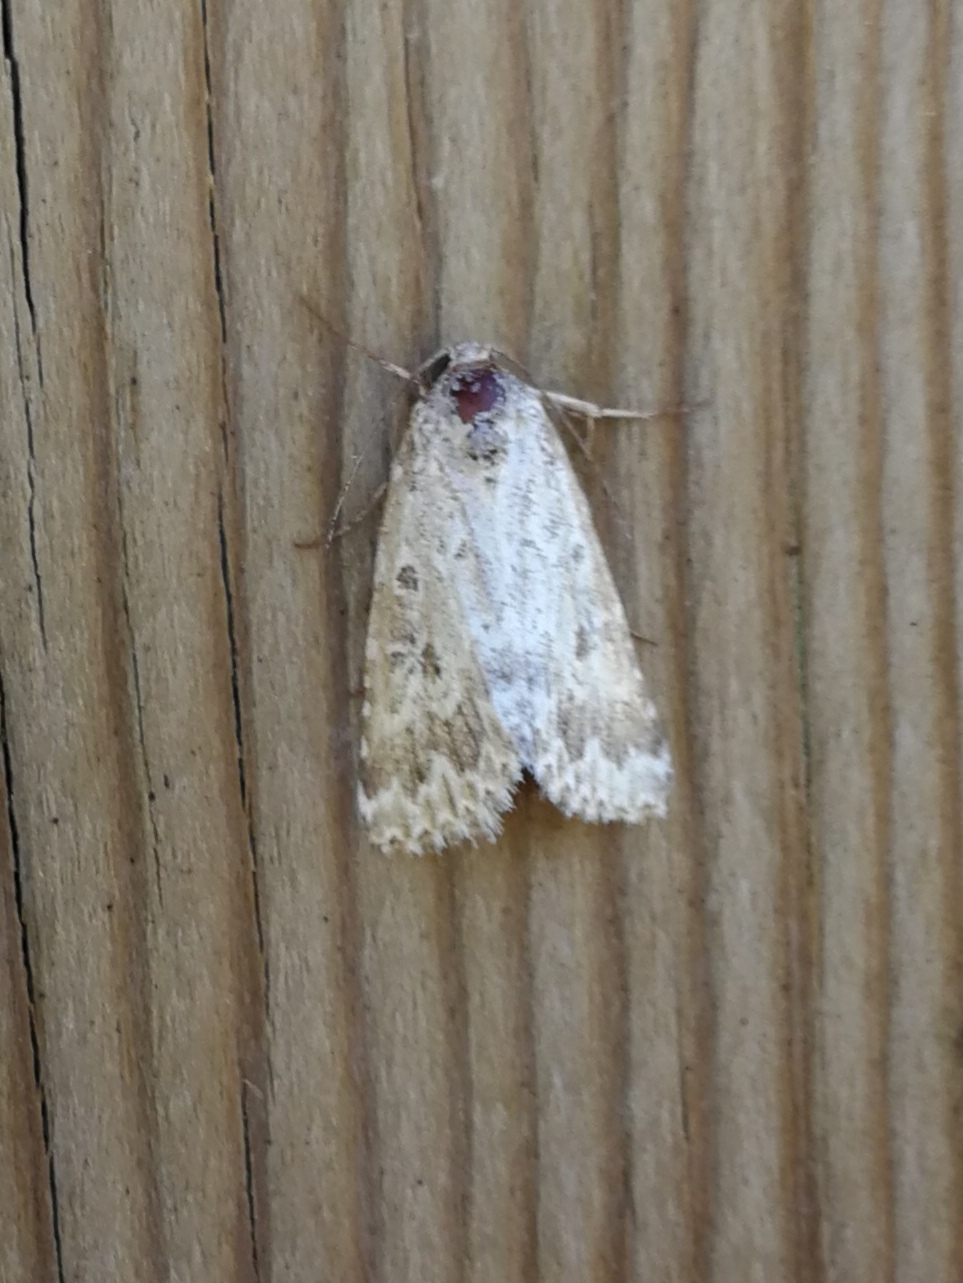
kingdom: Animalia
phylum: Arthropoda
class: Insecta
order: Lepidoptera
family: Noctuidae
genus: Alvaradoia
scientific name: Alvaradoia disjecta
